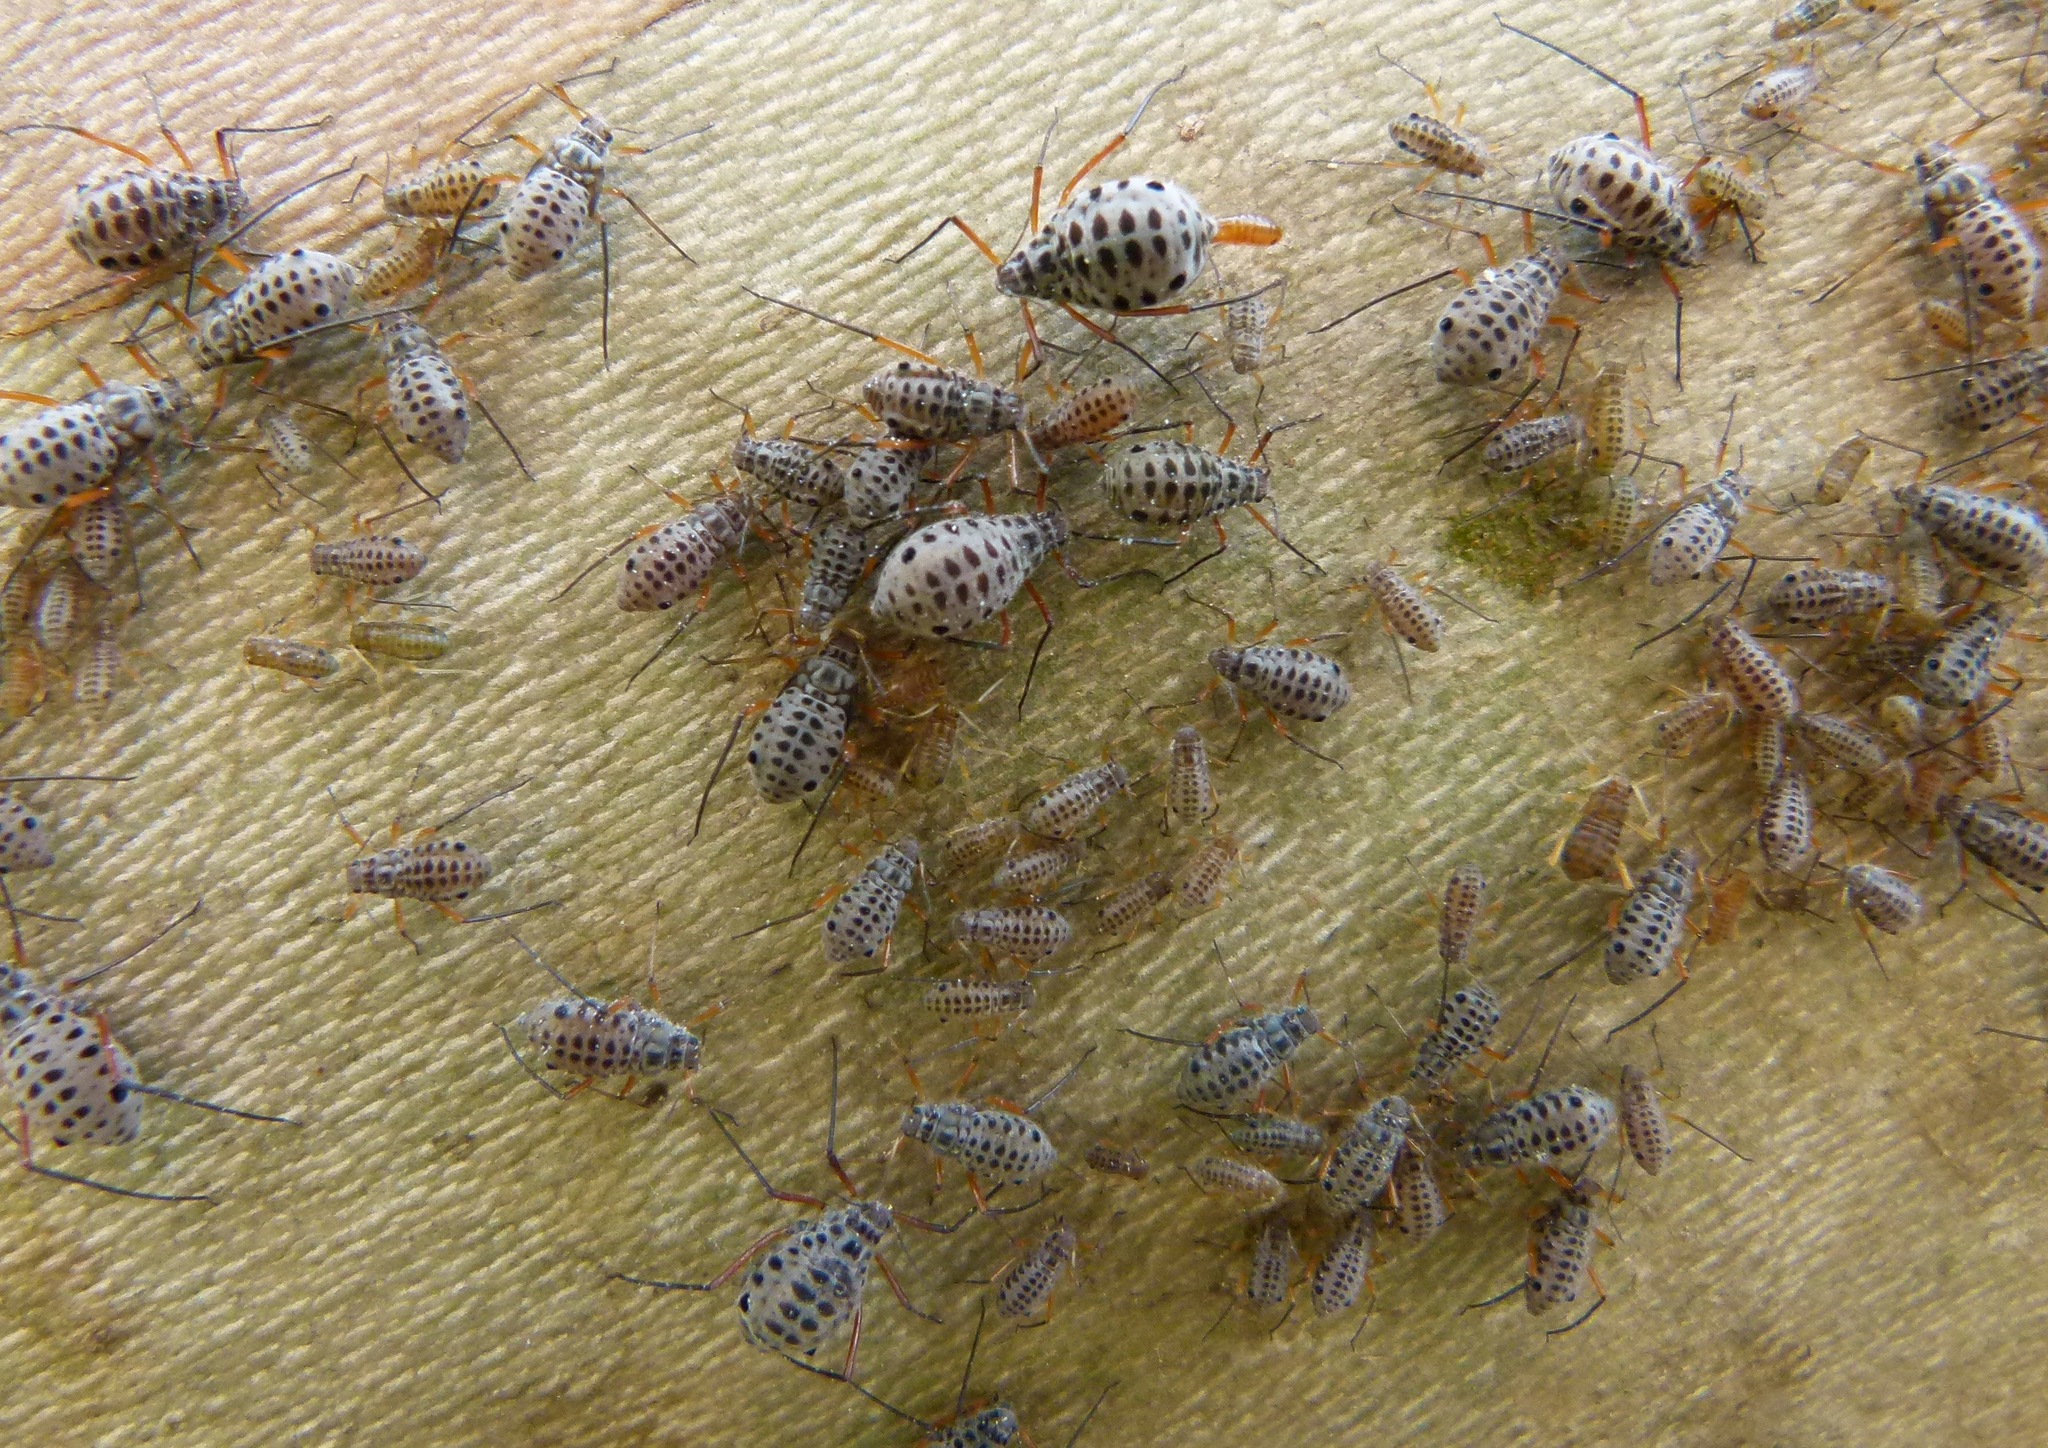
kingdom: Animalia
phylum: Arthropoda
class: Insecta
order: Hemiptera
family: Aphididae
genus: Longistigma
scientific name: Longistigma caryae
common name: Giant bark aphid
